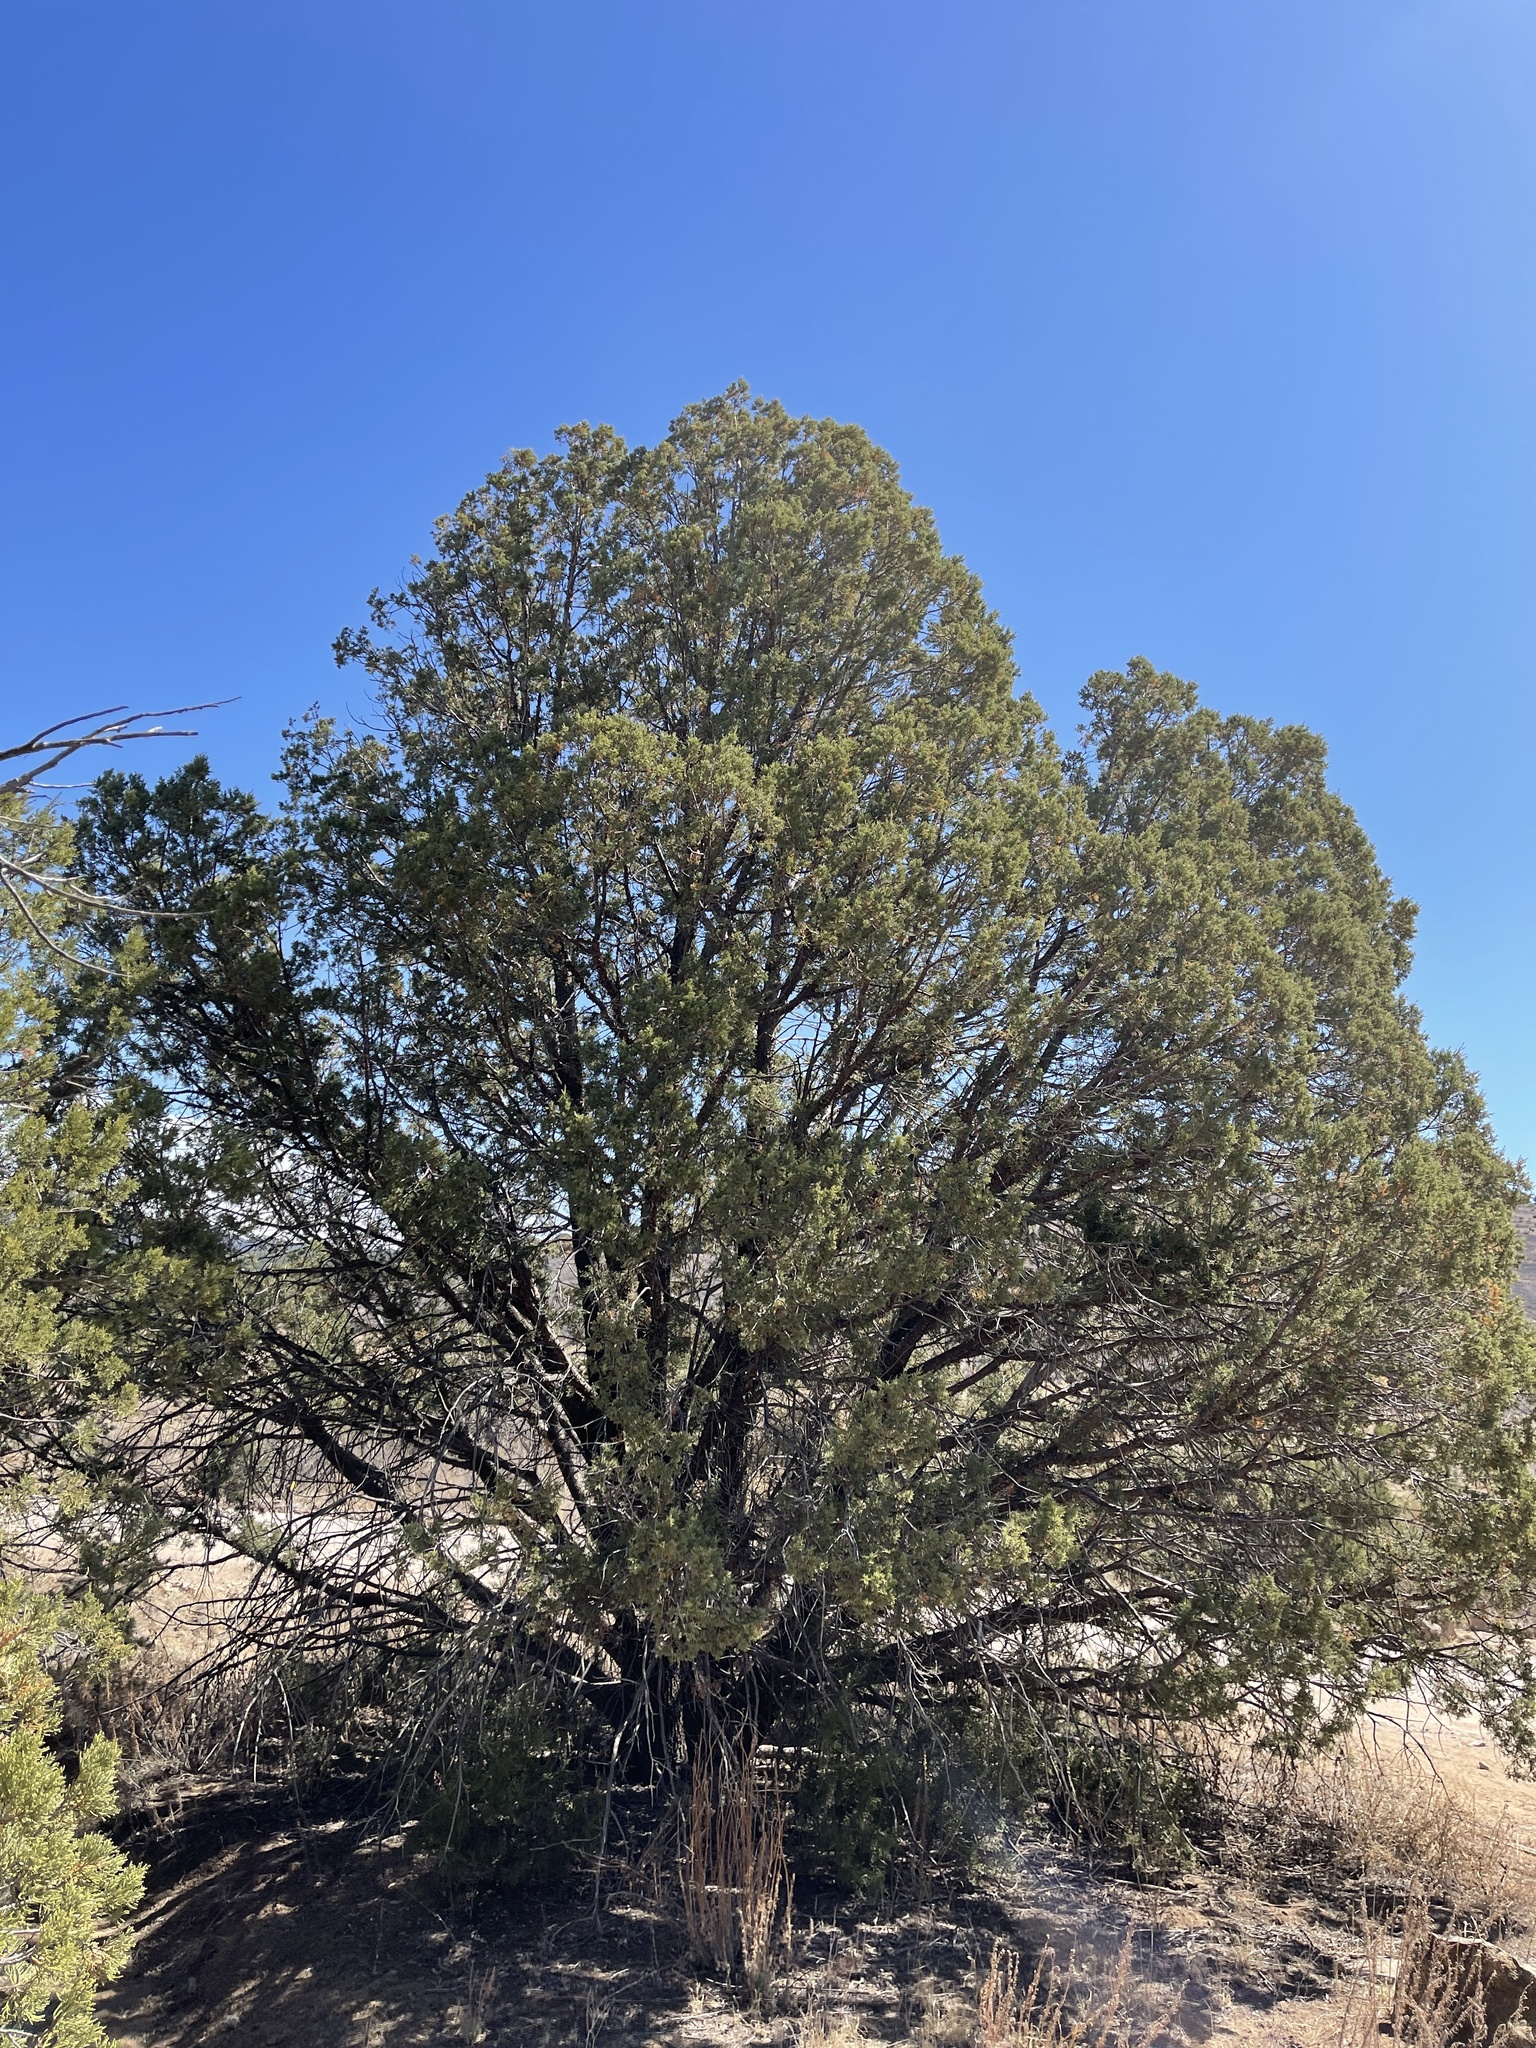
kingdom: Plantae
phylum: Tracheophyta
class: Pinopsida
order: Pinales
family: Cupressaceae
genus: Juniperus
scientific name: Juniperus deppeana
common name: Alligator juniper
